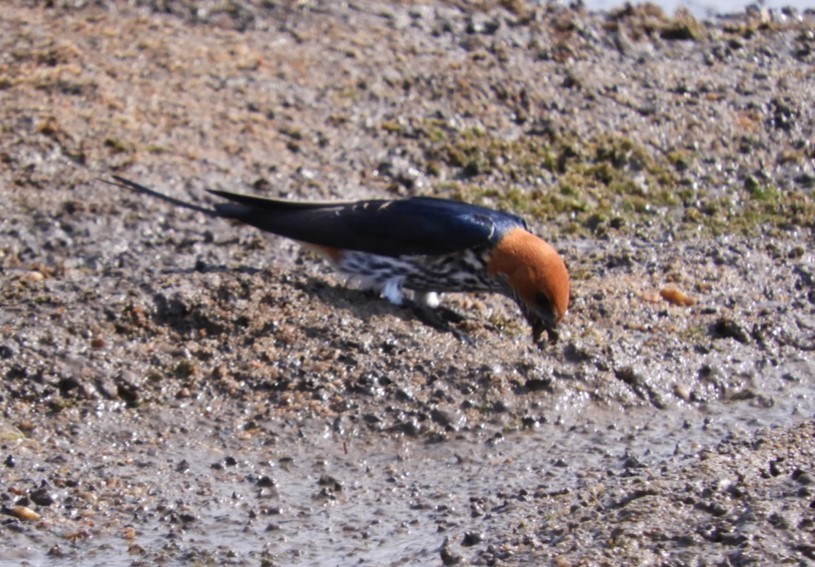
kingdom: Animalia
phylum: Chordata
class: Aves
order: Passeriformes
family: Hirundinidae
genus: Cecropis
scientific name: Cecropis abyssinica
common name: Lesser striped-swallow
